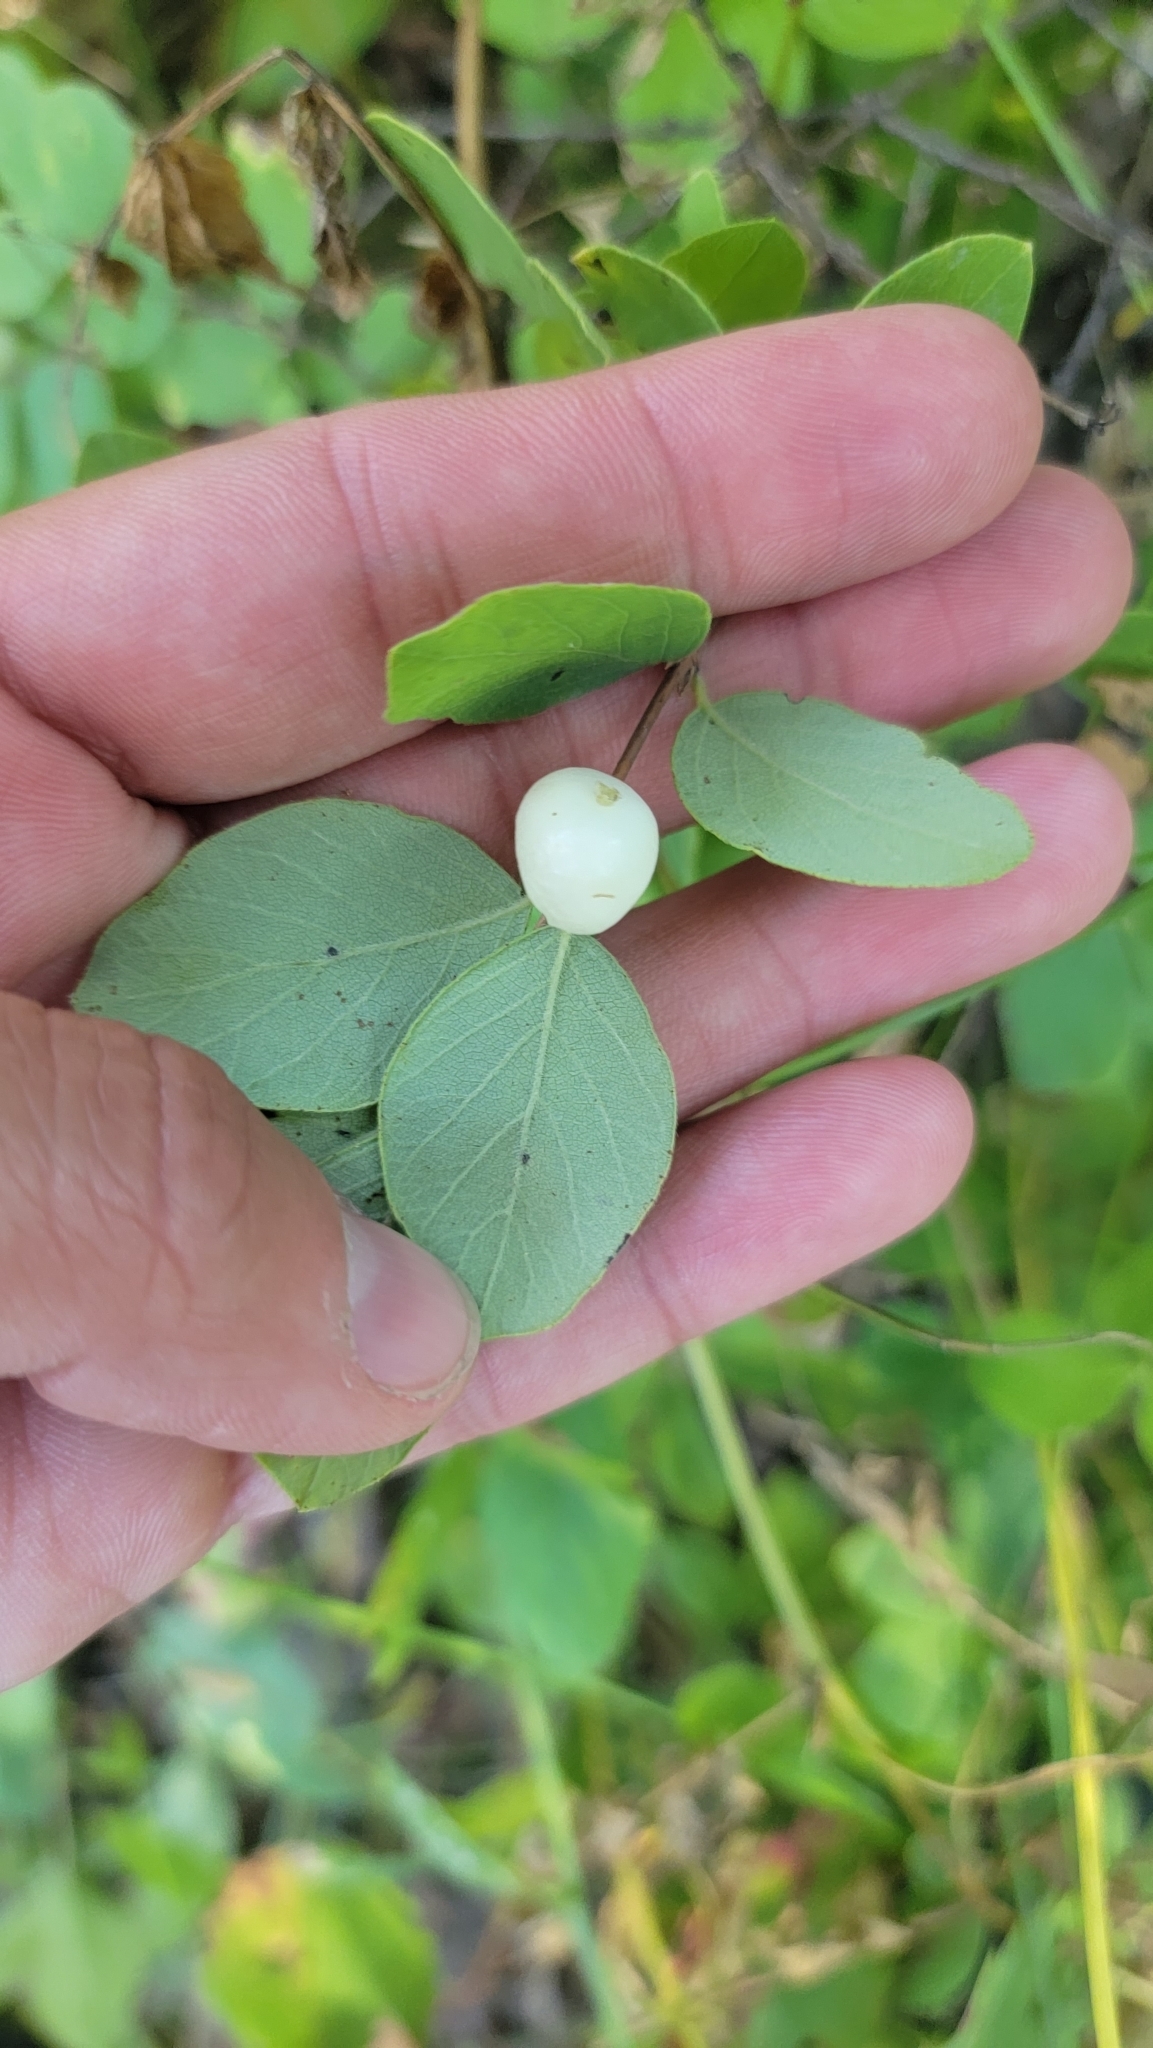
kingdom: Plantae
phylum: Tracheophyta
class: Magnoliopsida
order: Dipsacales
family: Caprifoliaceae
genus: Symphoricarpos
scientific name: Symphoricarpos albus
